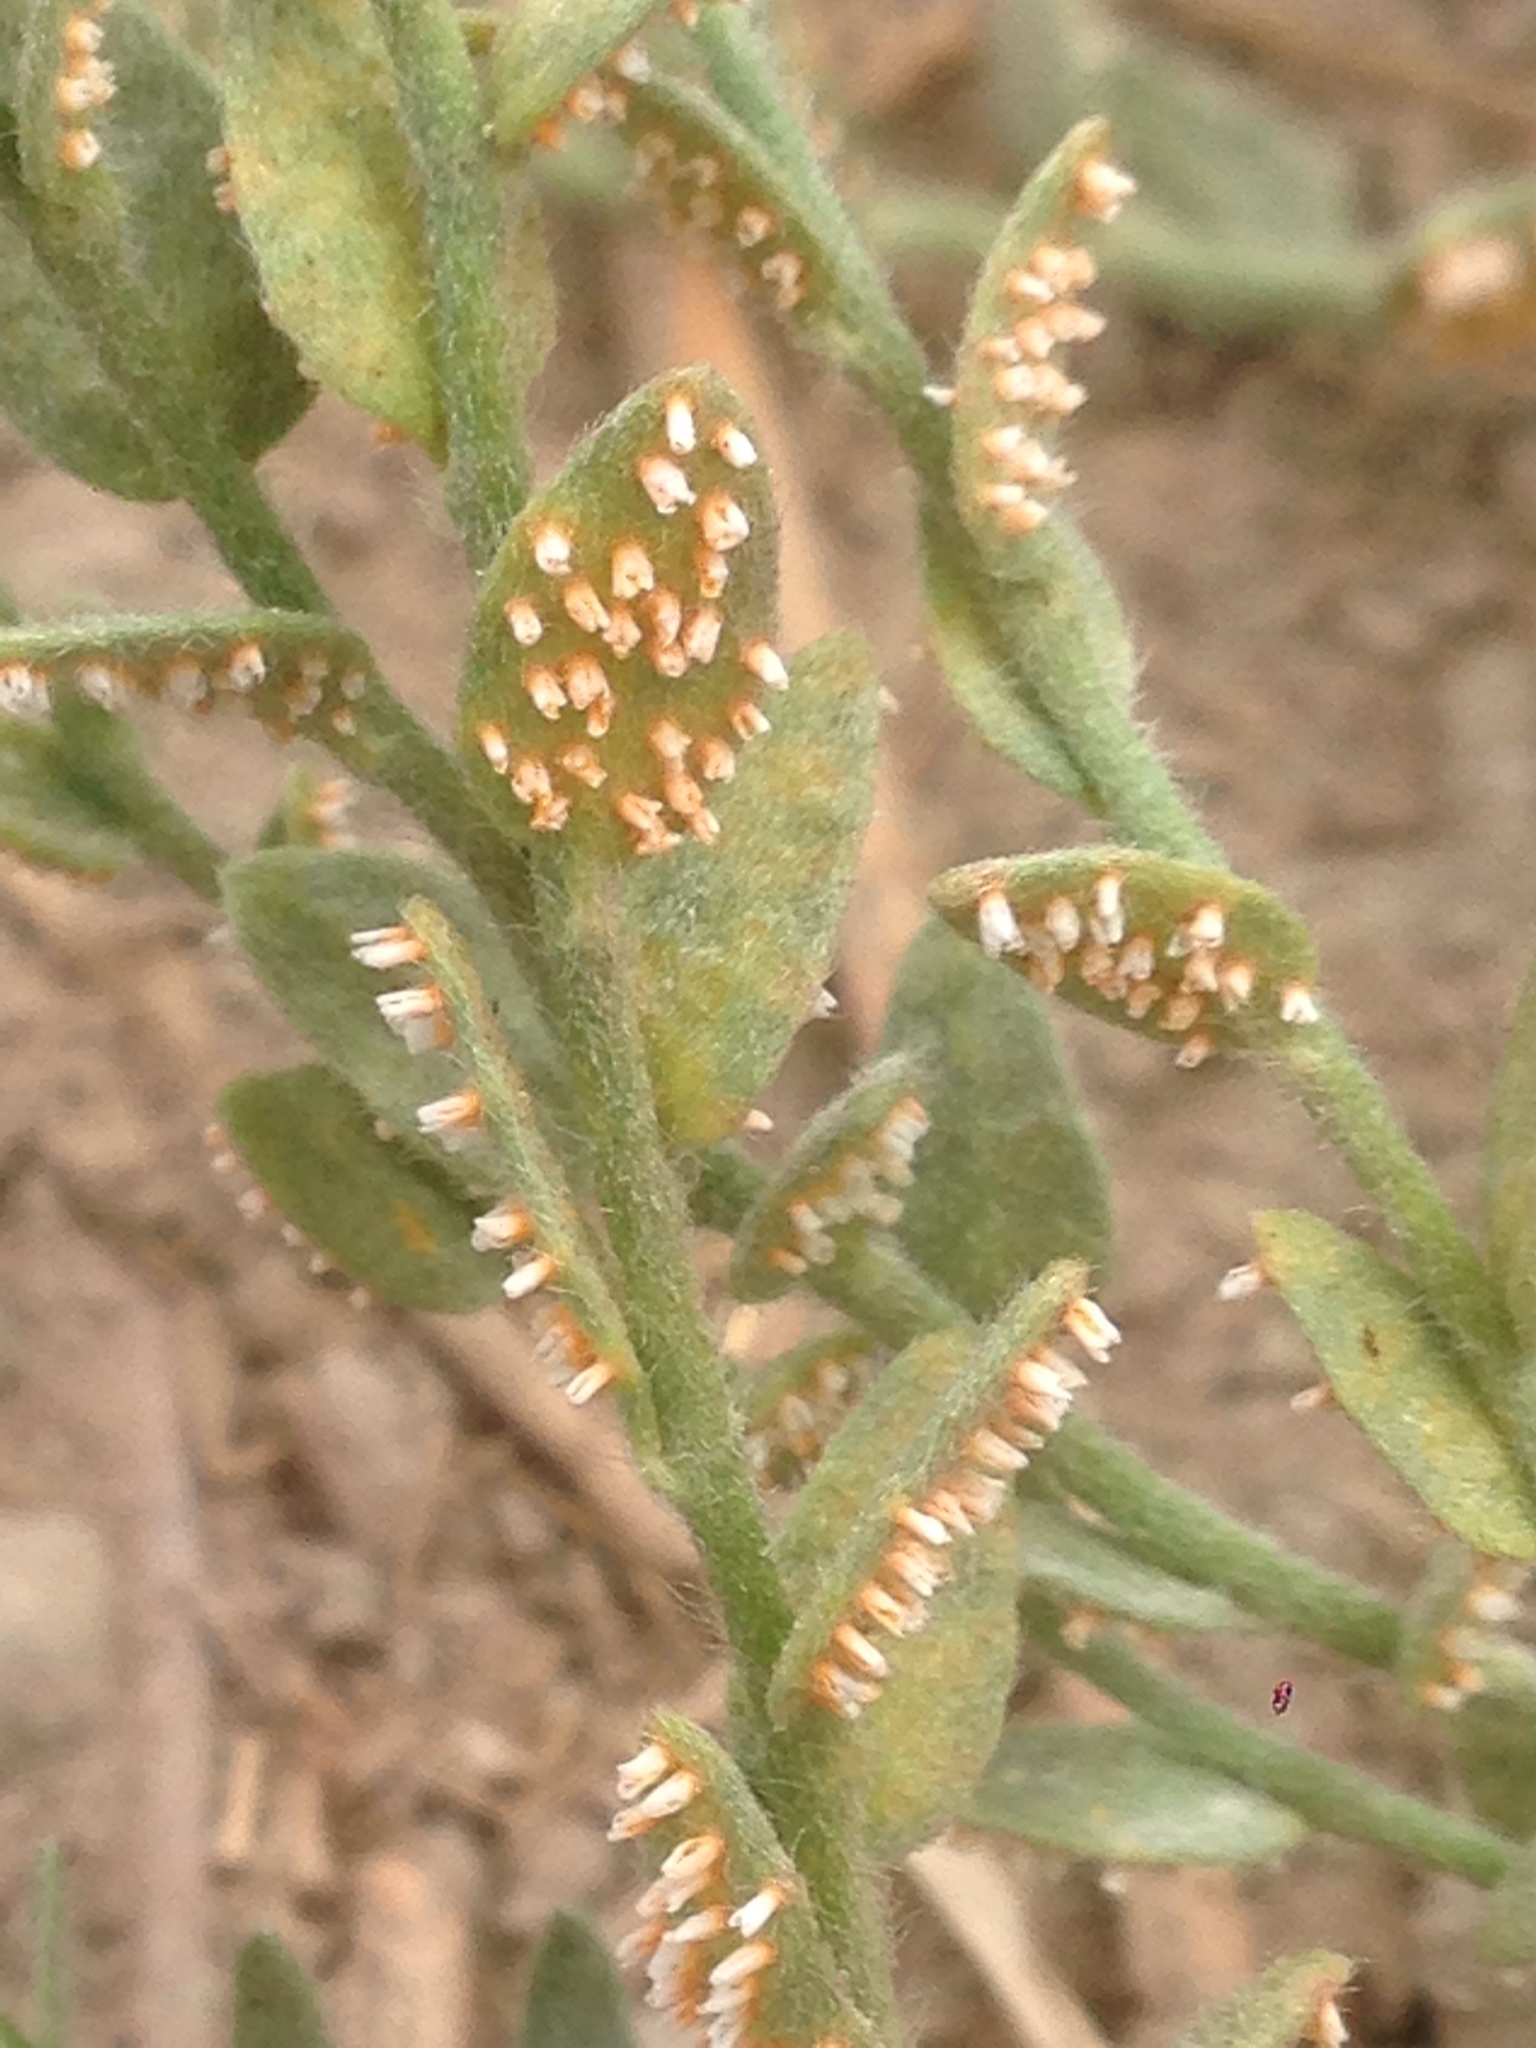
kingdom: Fungi
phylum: Basidiomycota
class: Pucciniomycetes
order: Pucciniales
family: Pucciniaceae
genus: Puccinia
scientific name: Puccinia cressae
